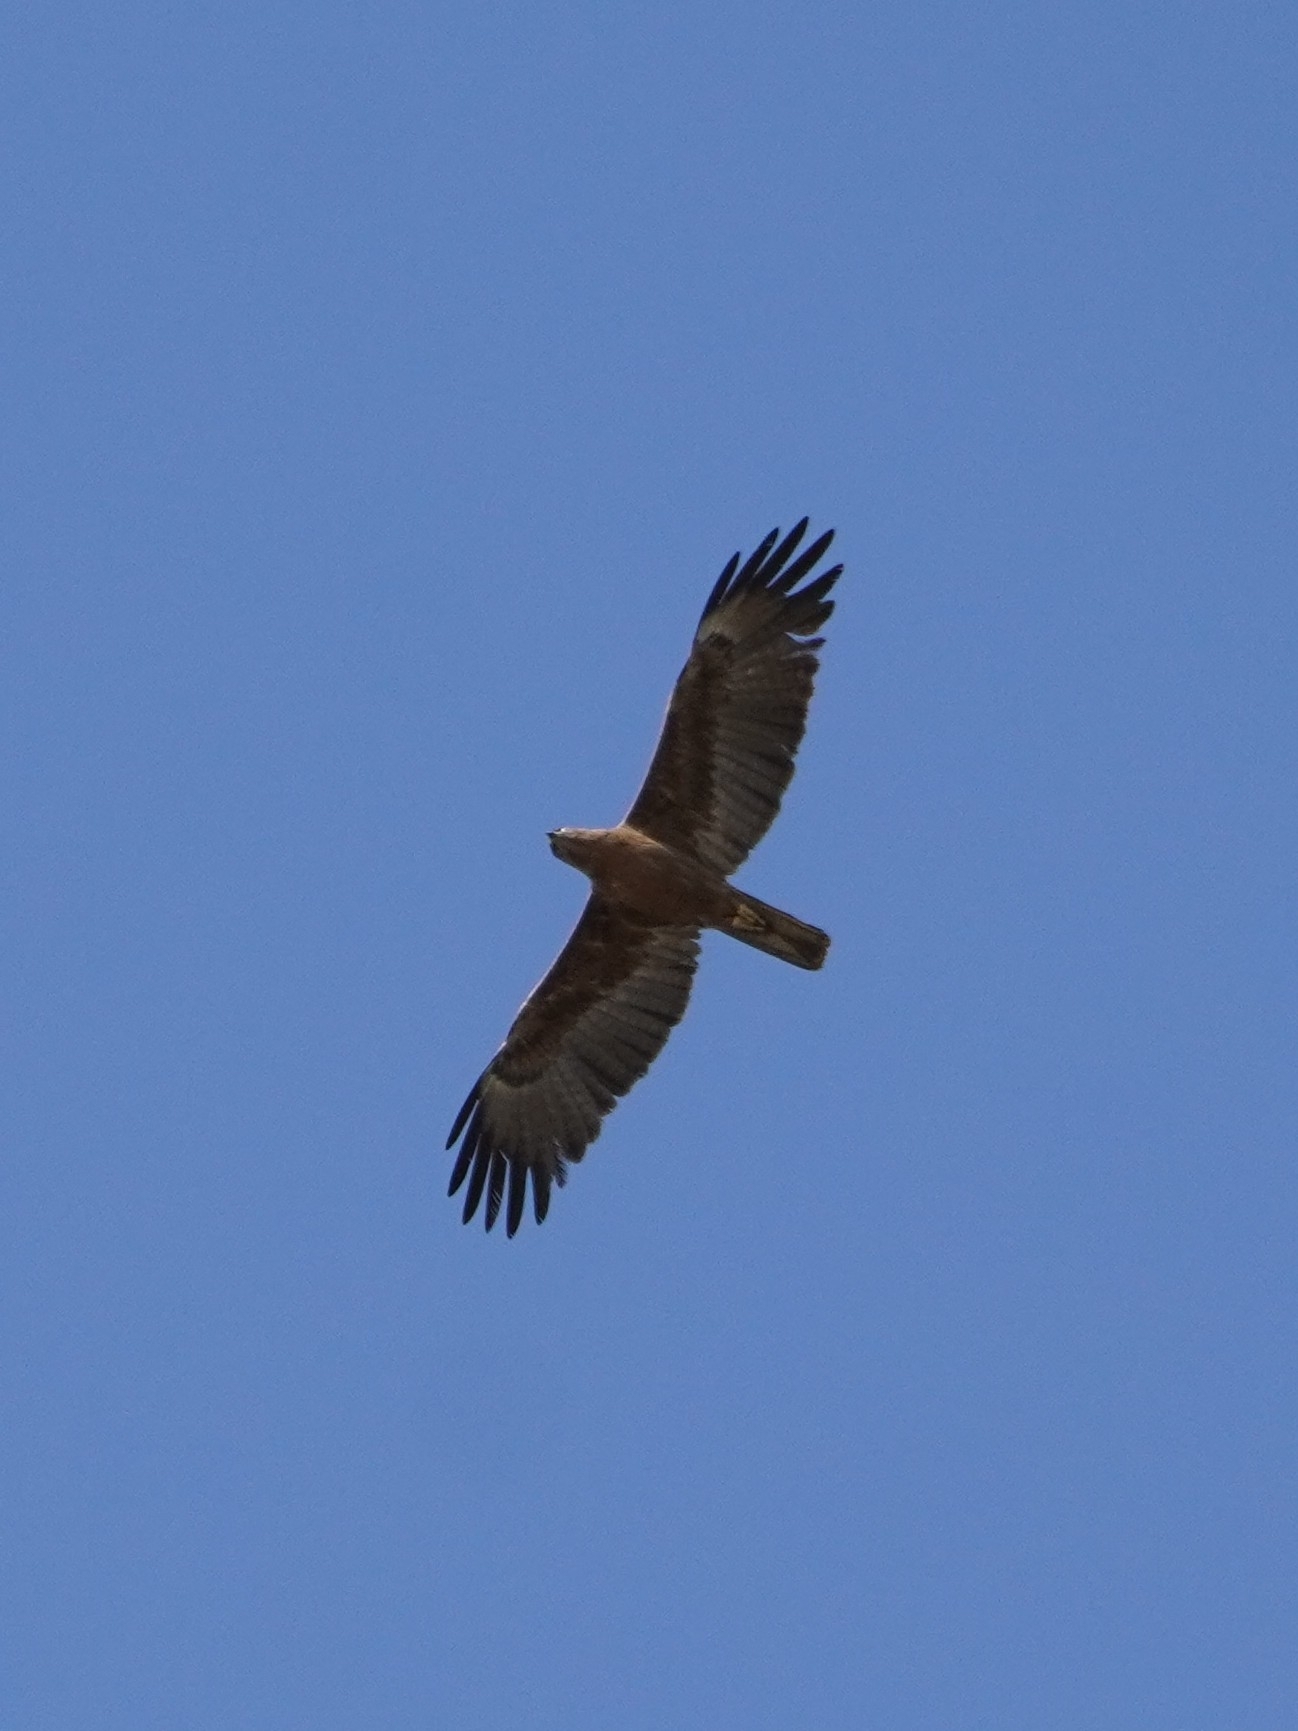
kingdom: Animalia
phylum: Chordata
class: Aves
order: Accipitriformes
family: Accipitridae
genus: Hieraaetus
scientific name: Hieraaetus wahlbergi
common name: Wahlberg's eagle
